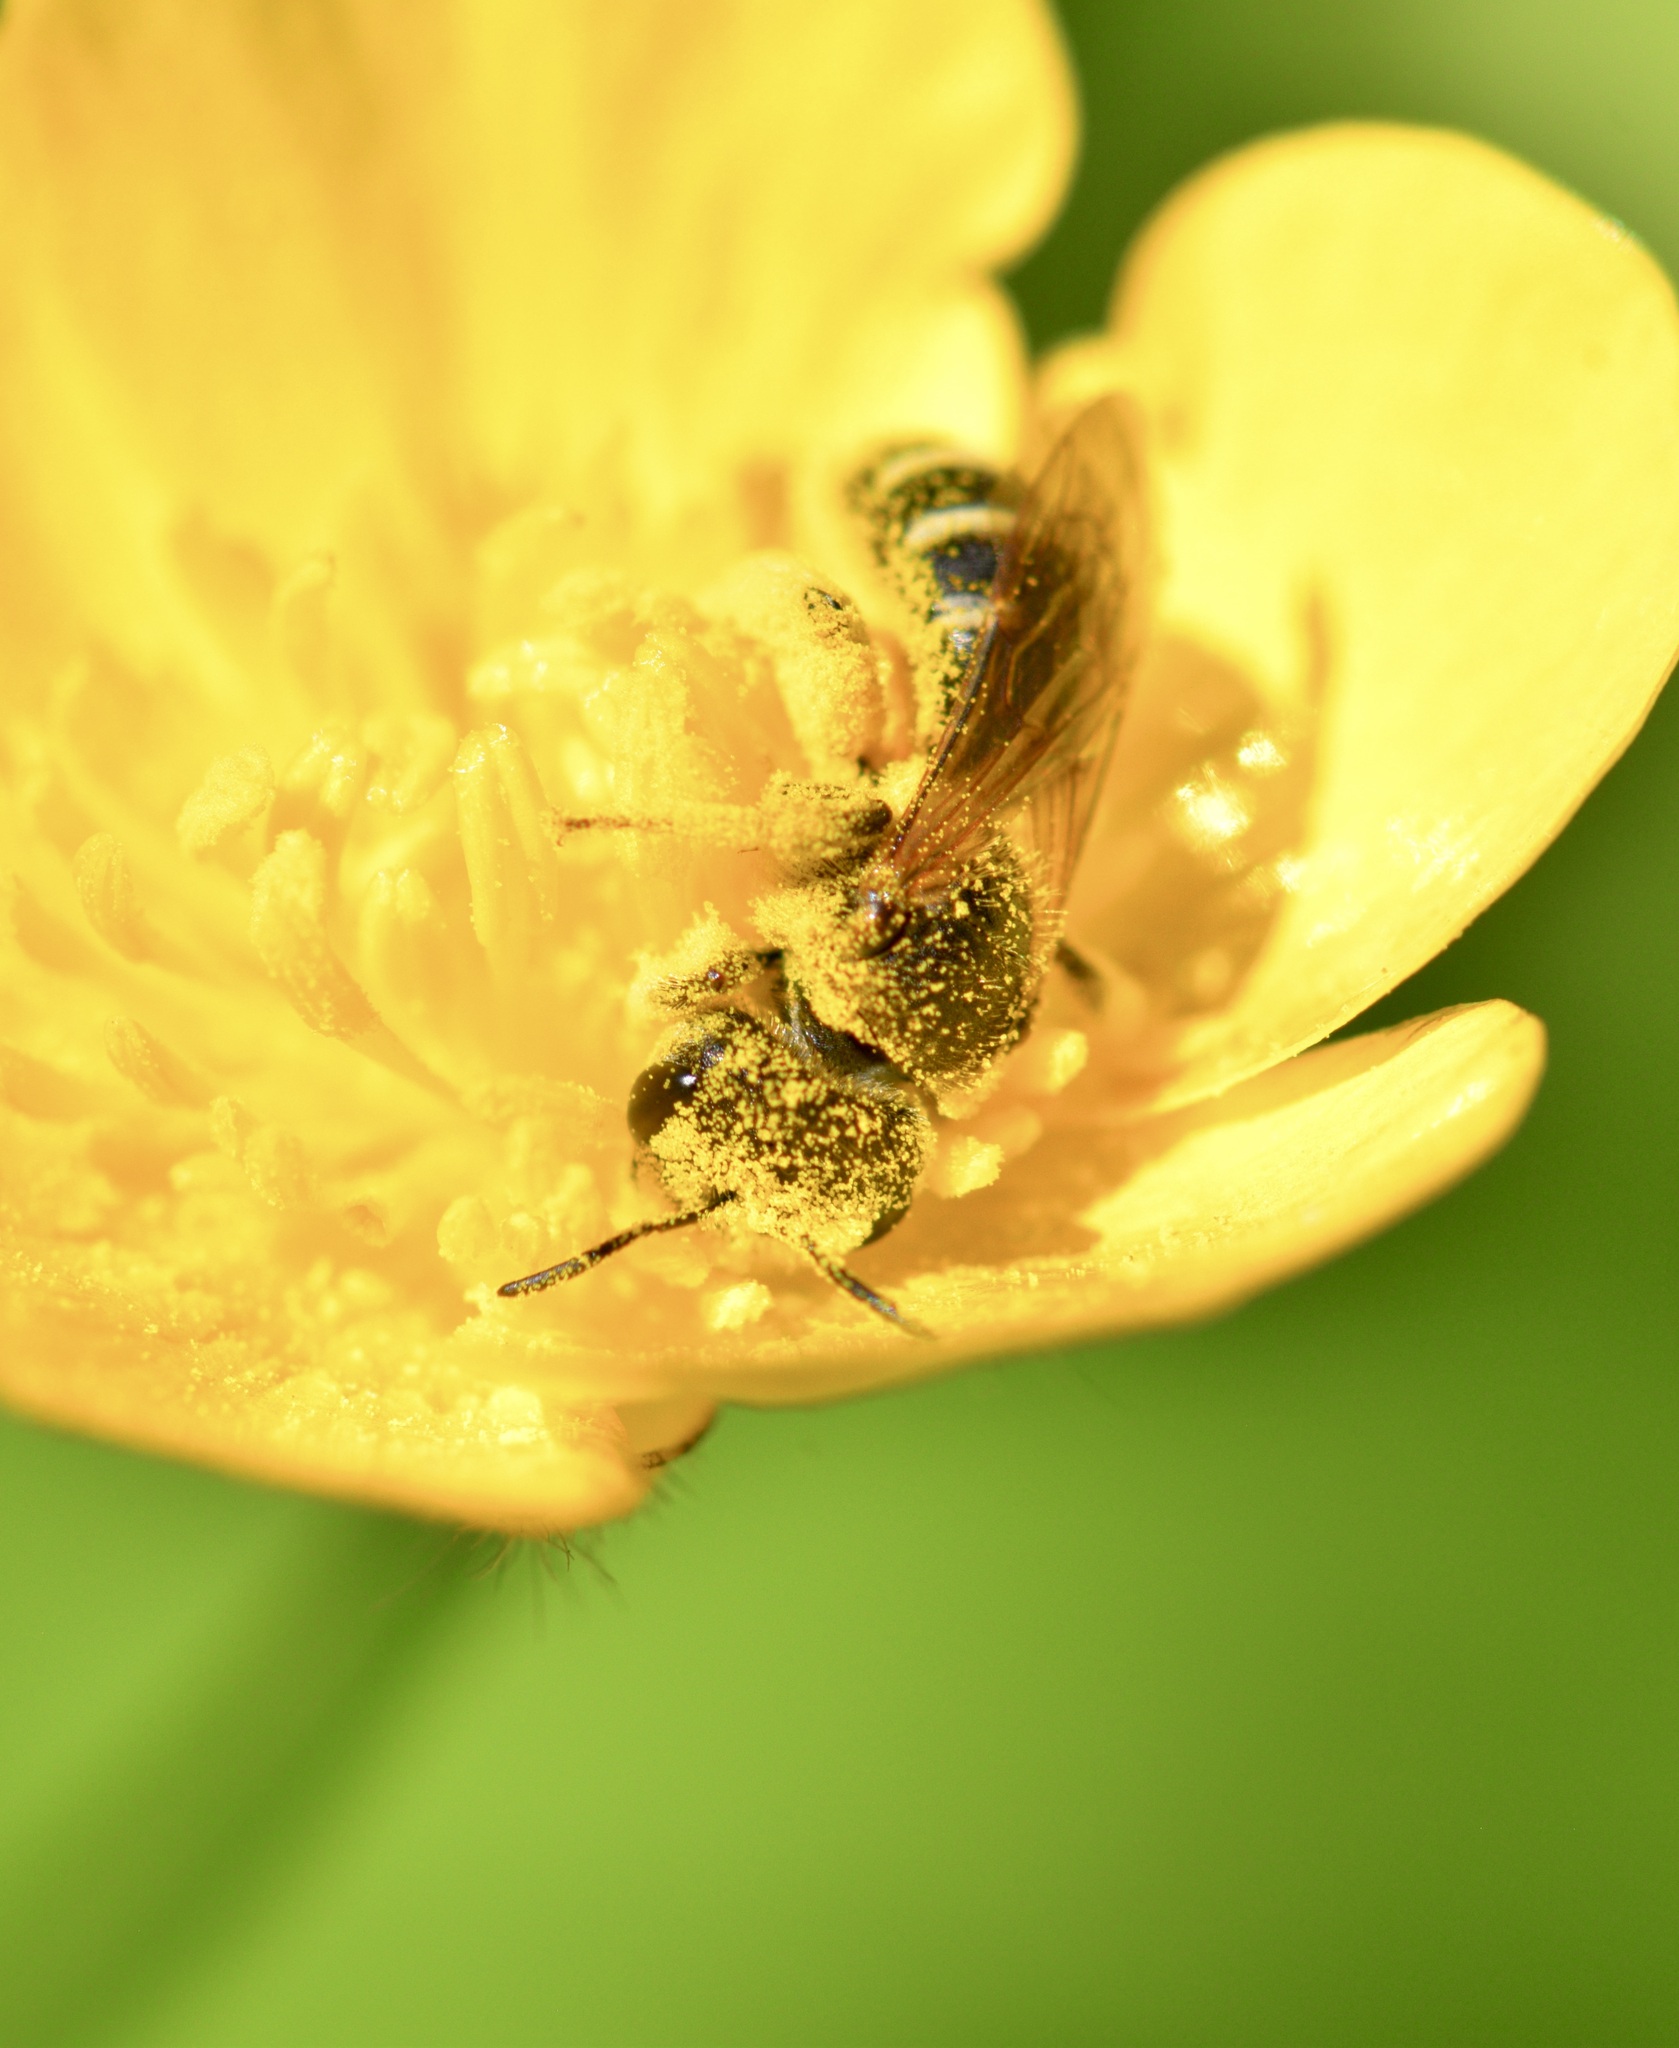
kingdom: Animalia
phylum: Arthropoda
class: Insecta
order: Hymenoptera
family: Halictidae
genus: Halictus
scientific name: Halictus ligatus
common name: Ligated furrow bee
